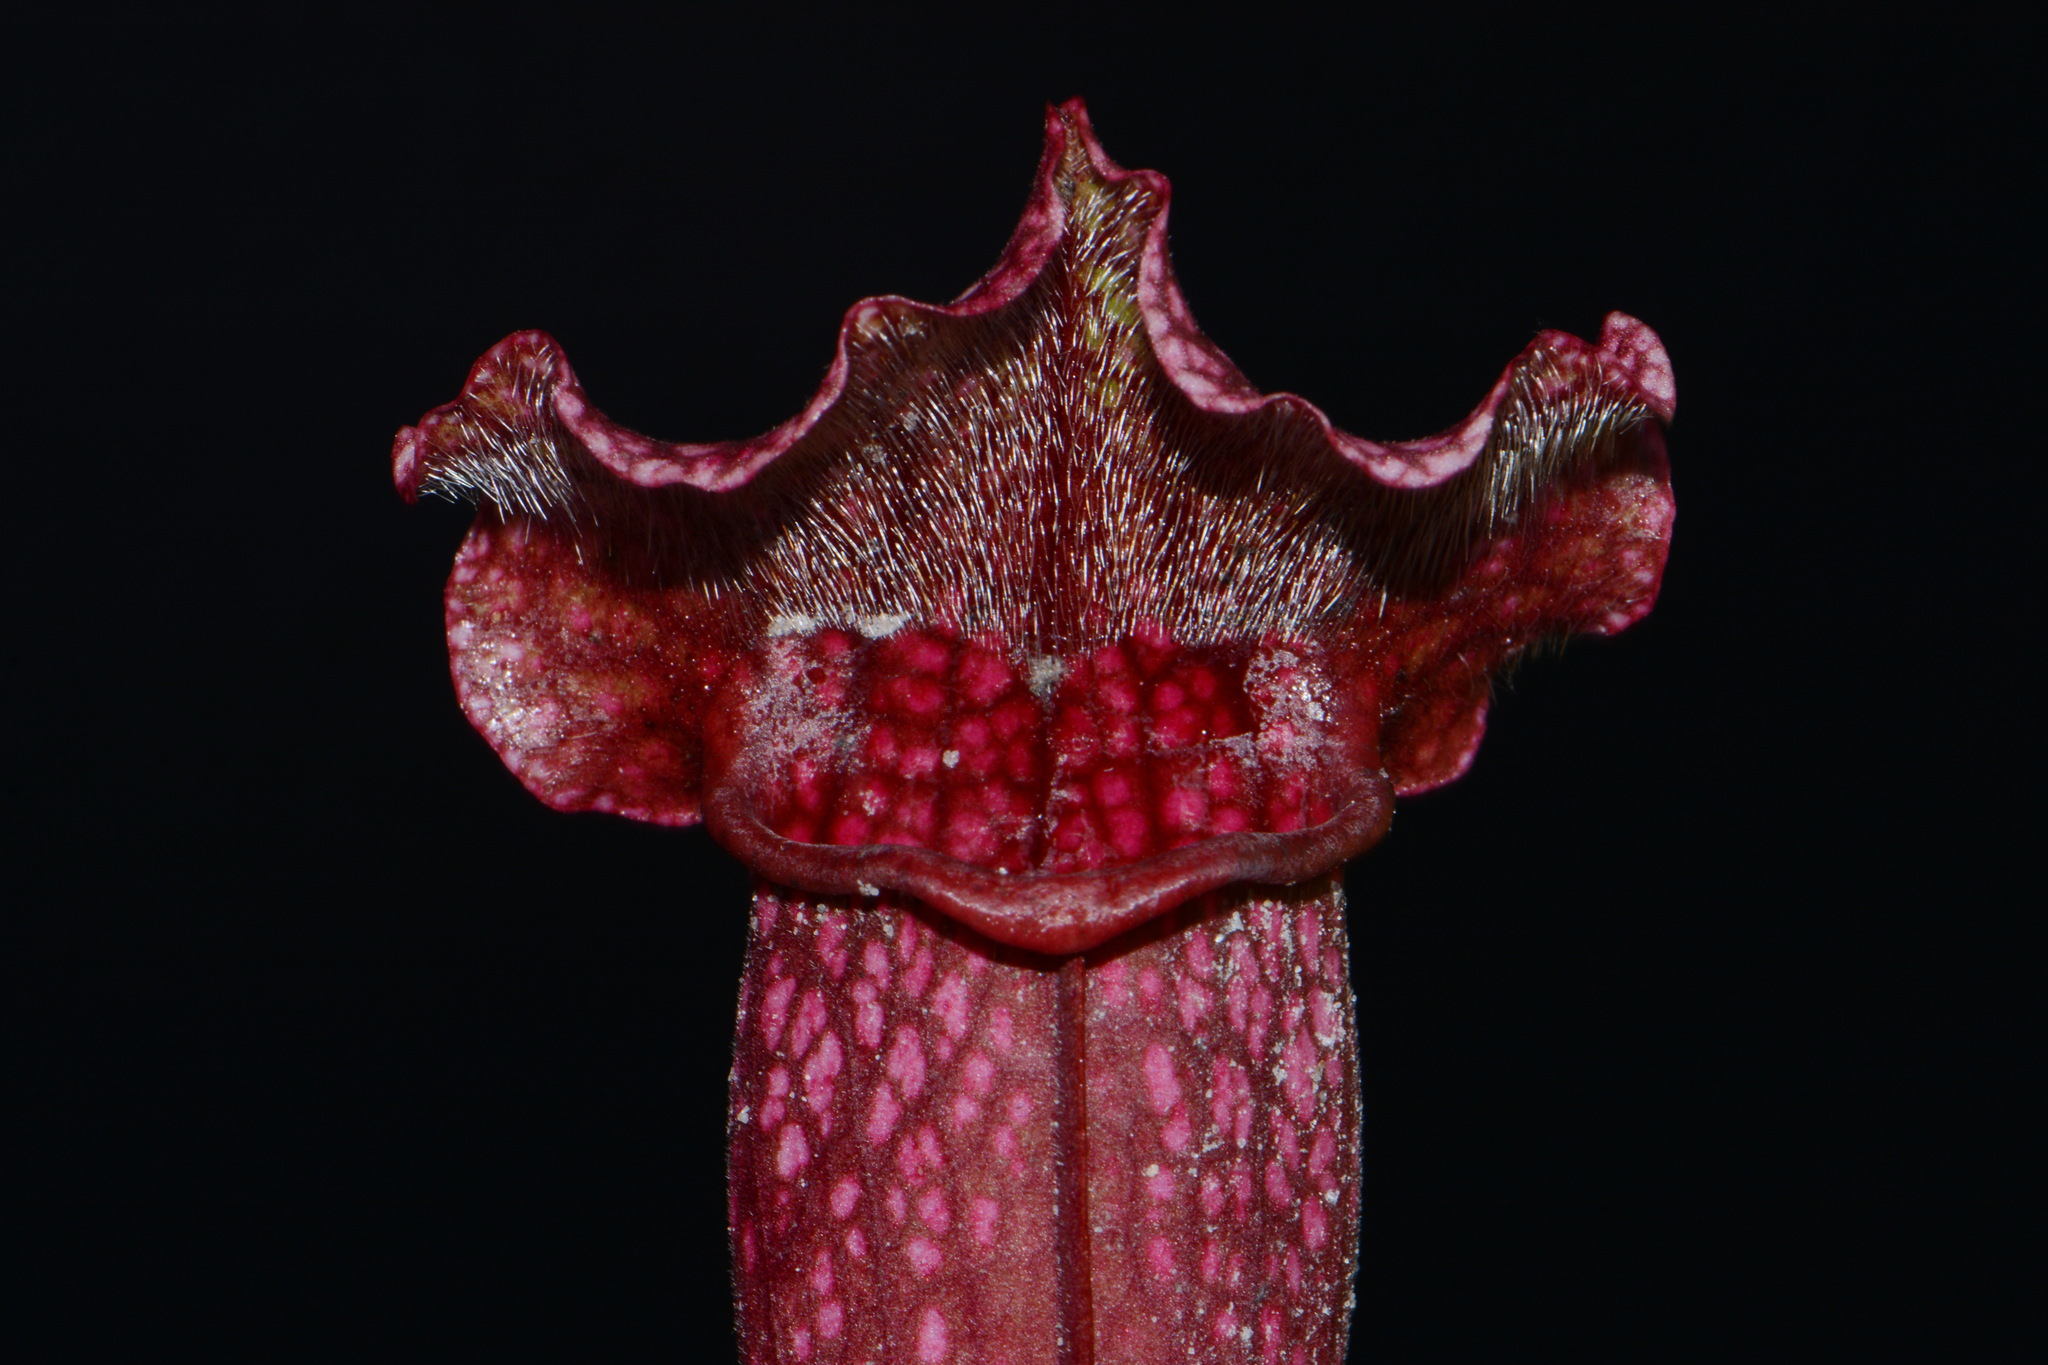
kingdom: Plantae
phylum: Tracheophyta
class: Magnoliopsida
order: Ericales
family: Sarraceniaceae
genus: Sarracenia
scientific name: Sarracenia mitchelliana
